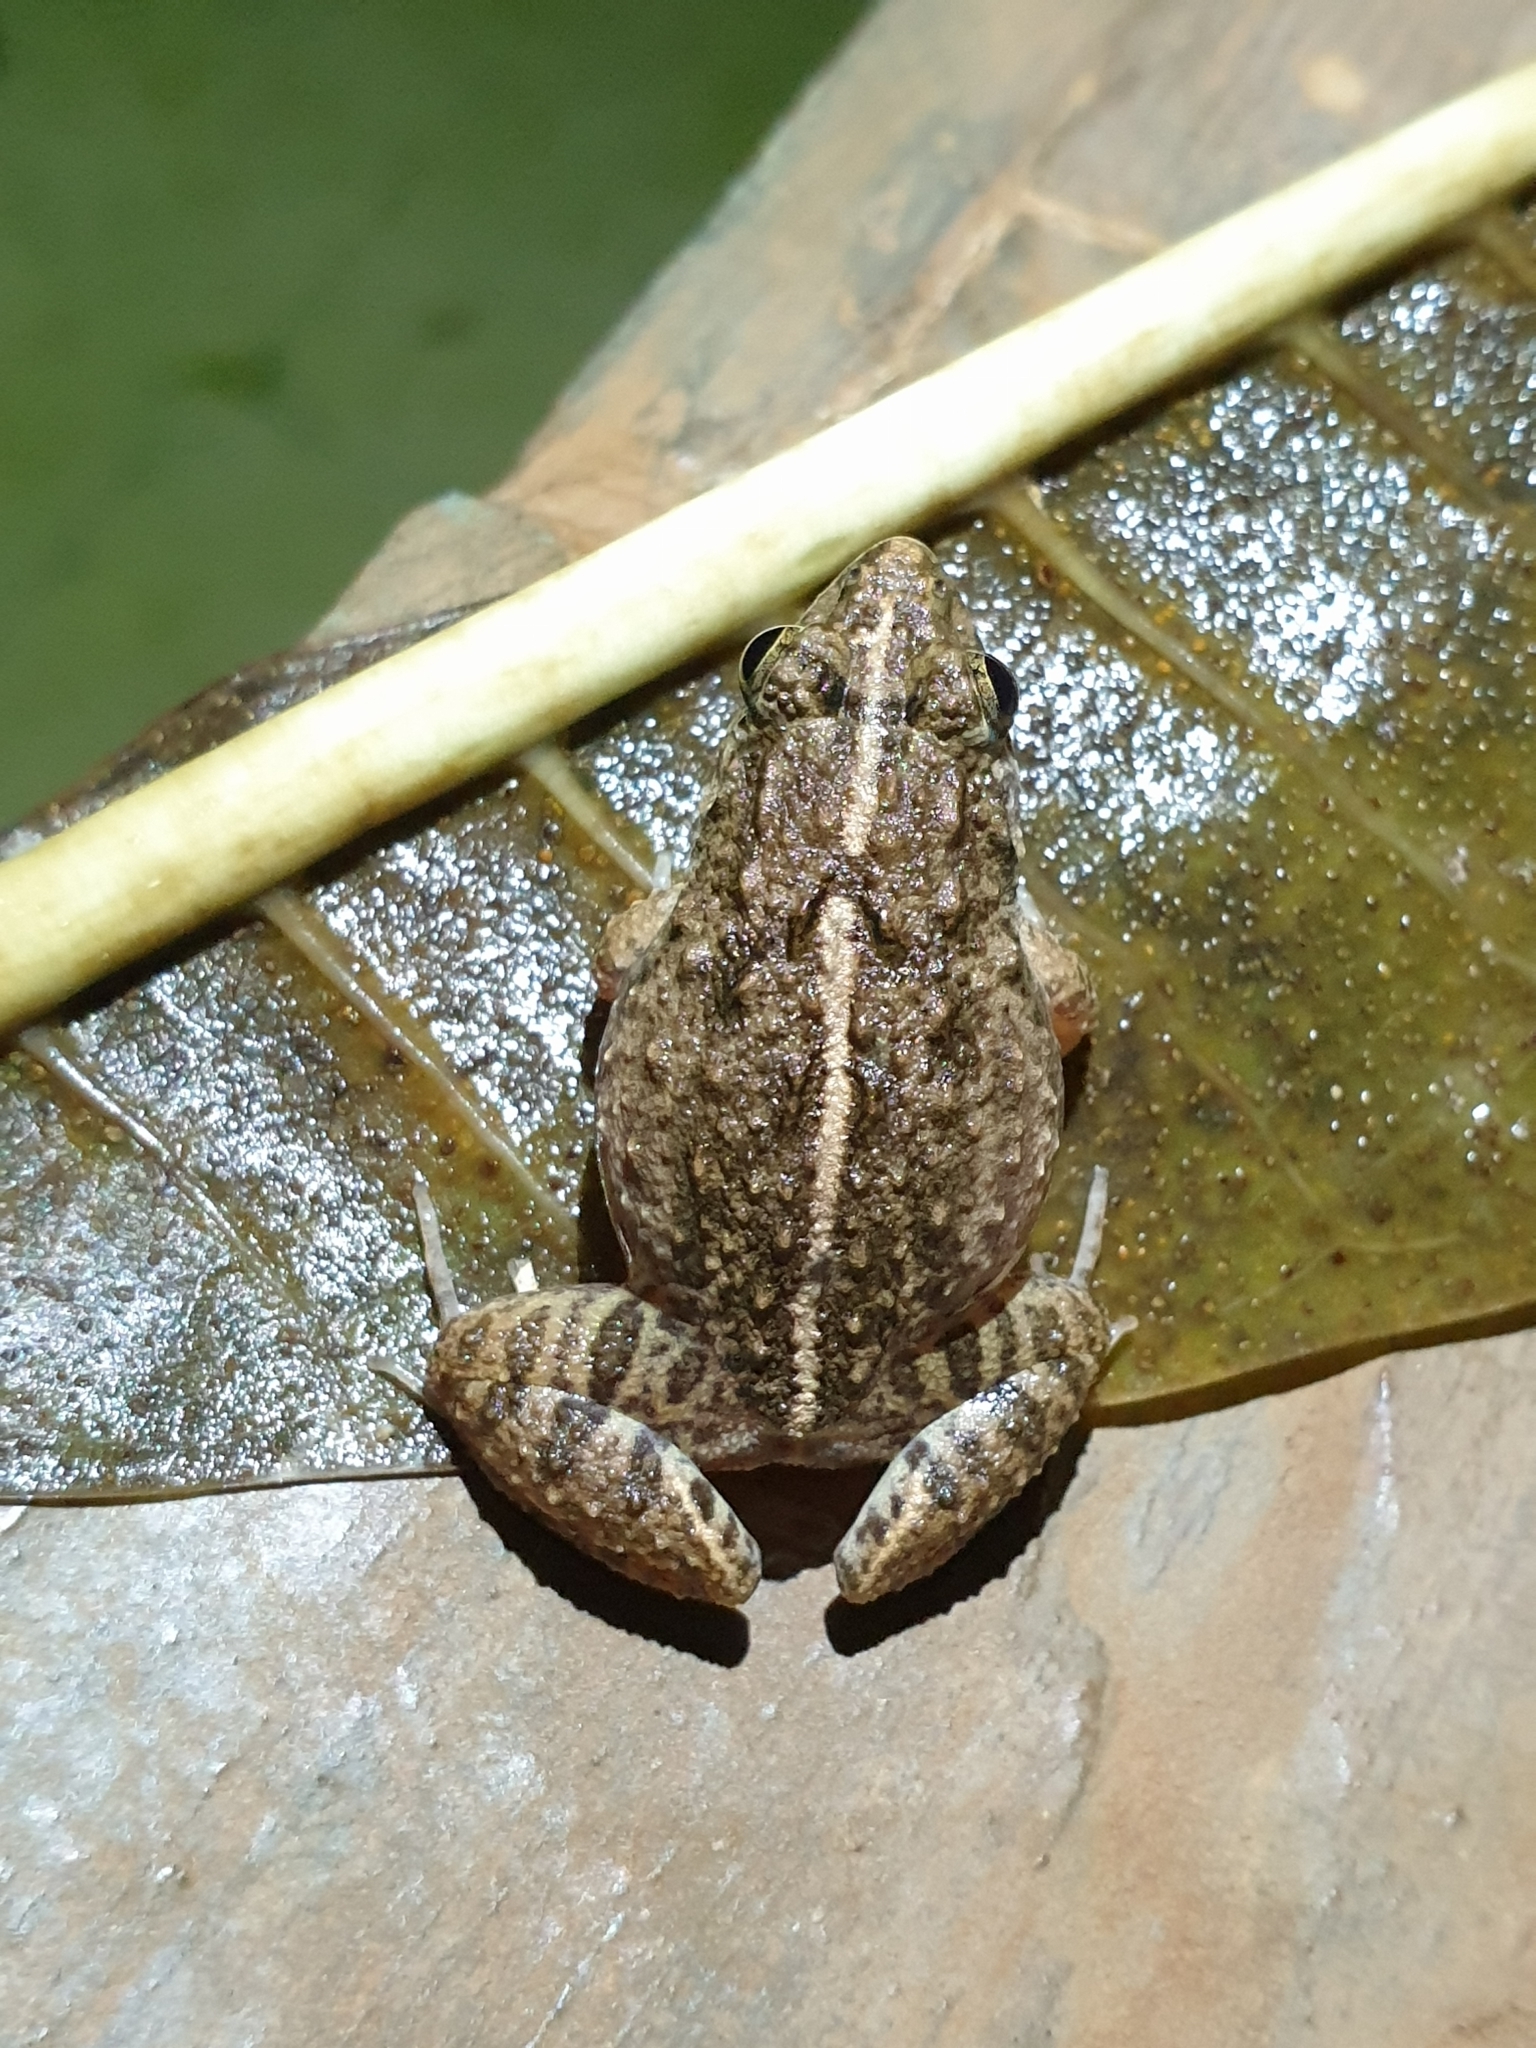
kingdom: Animalia
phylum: Chordata
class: Amphibia
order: Anura
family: Dicroglossidae
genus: Minervarya
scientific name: Minervarya agricola
